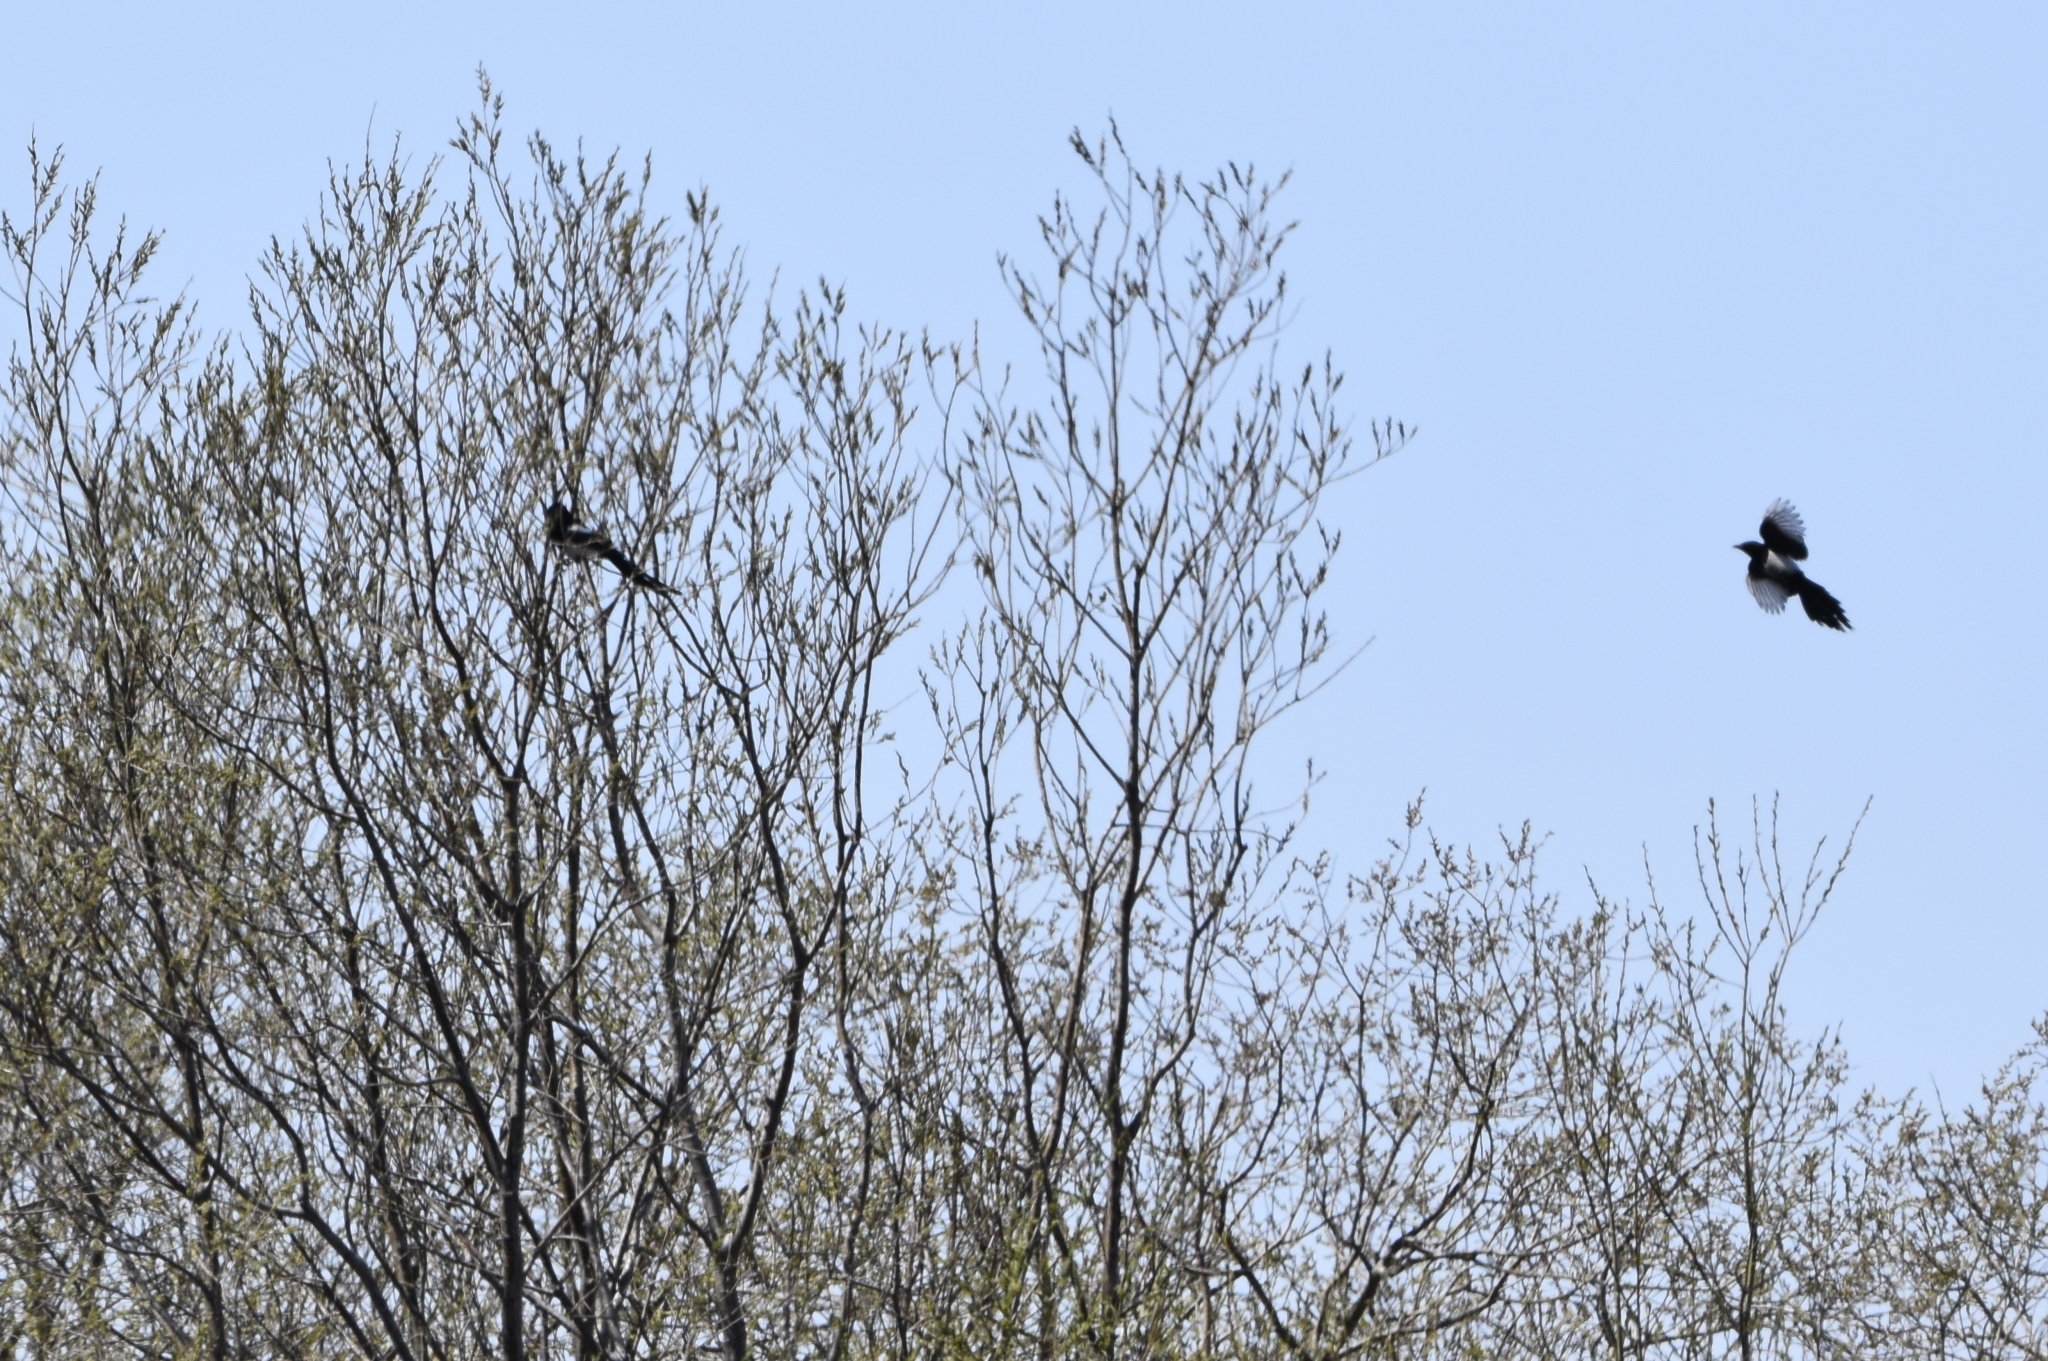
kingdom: Animalia
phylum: Chordata
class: Aves
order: Passeriformes
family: Corvidae
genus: Pica
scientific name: Pica pica
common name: Eurasian magpie
